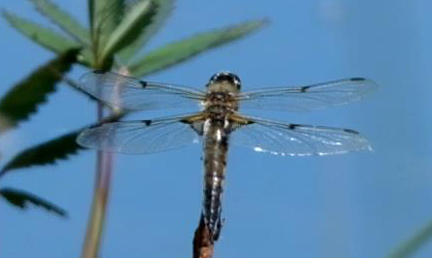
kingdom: Animalia
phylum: Arthropoda
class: Insecta
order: Odonata
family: Libellulidae
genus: Libellula
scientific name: Libellula quadrimaculata
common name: Four-spotted chaser
